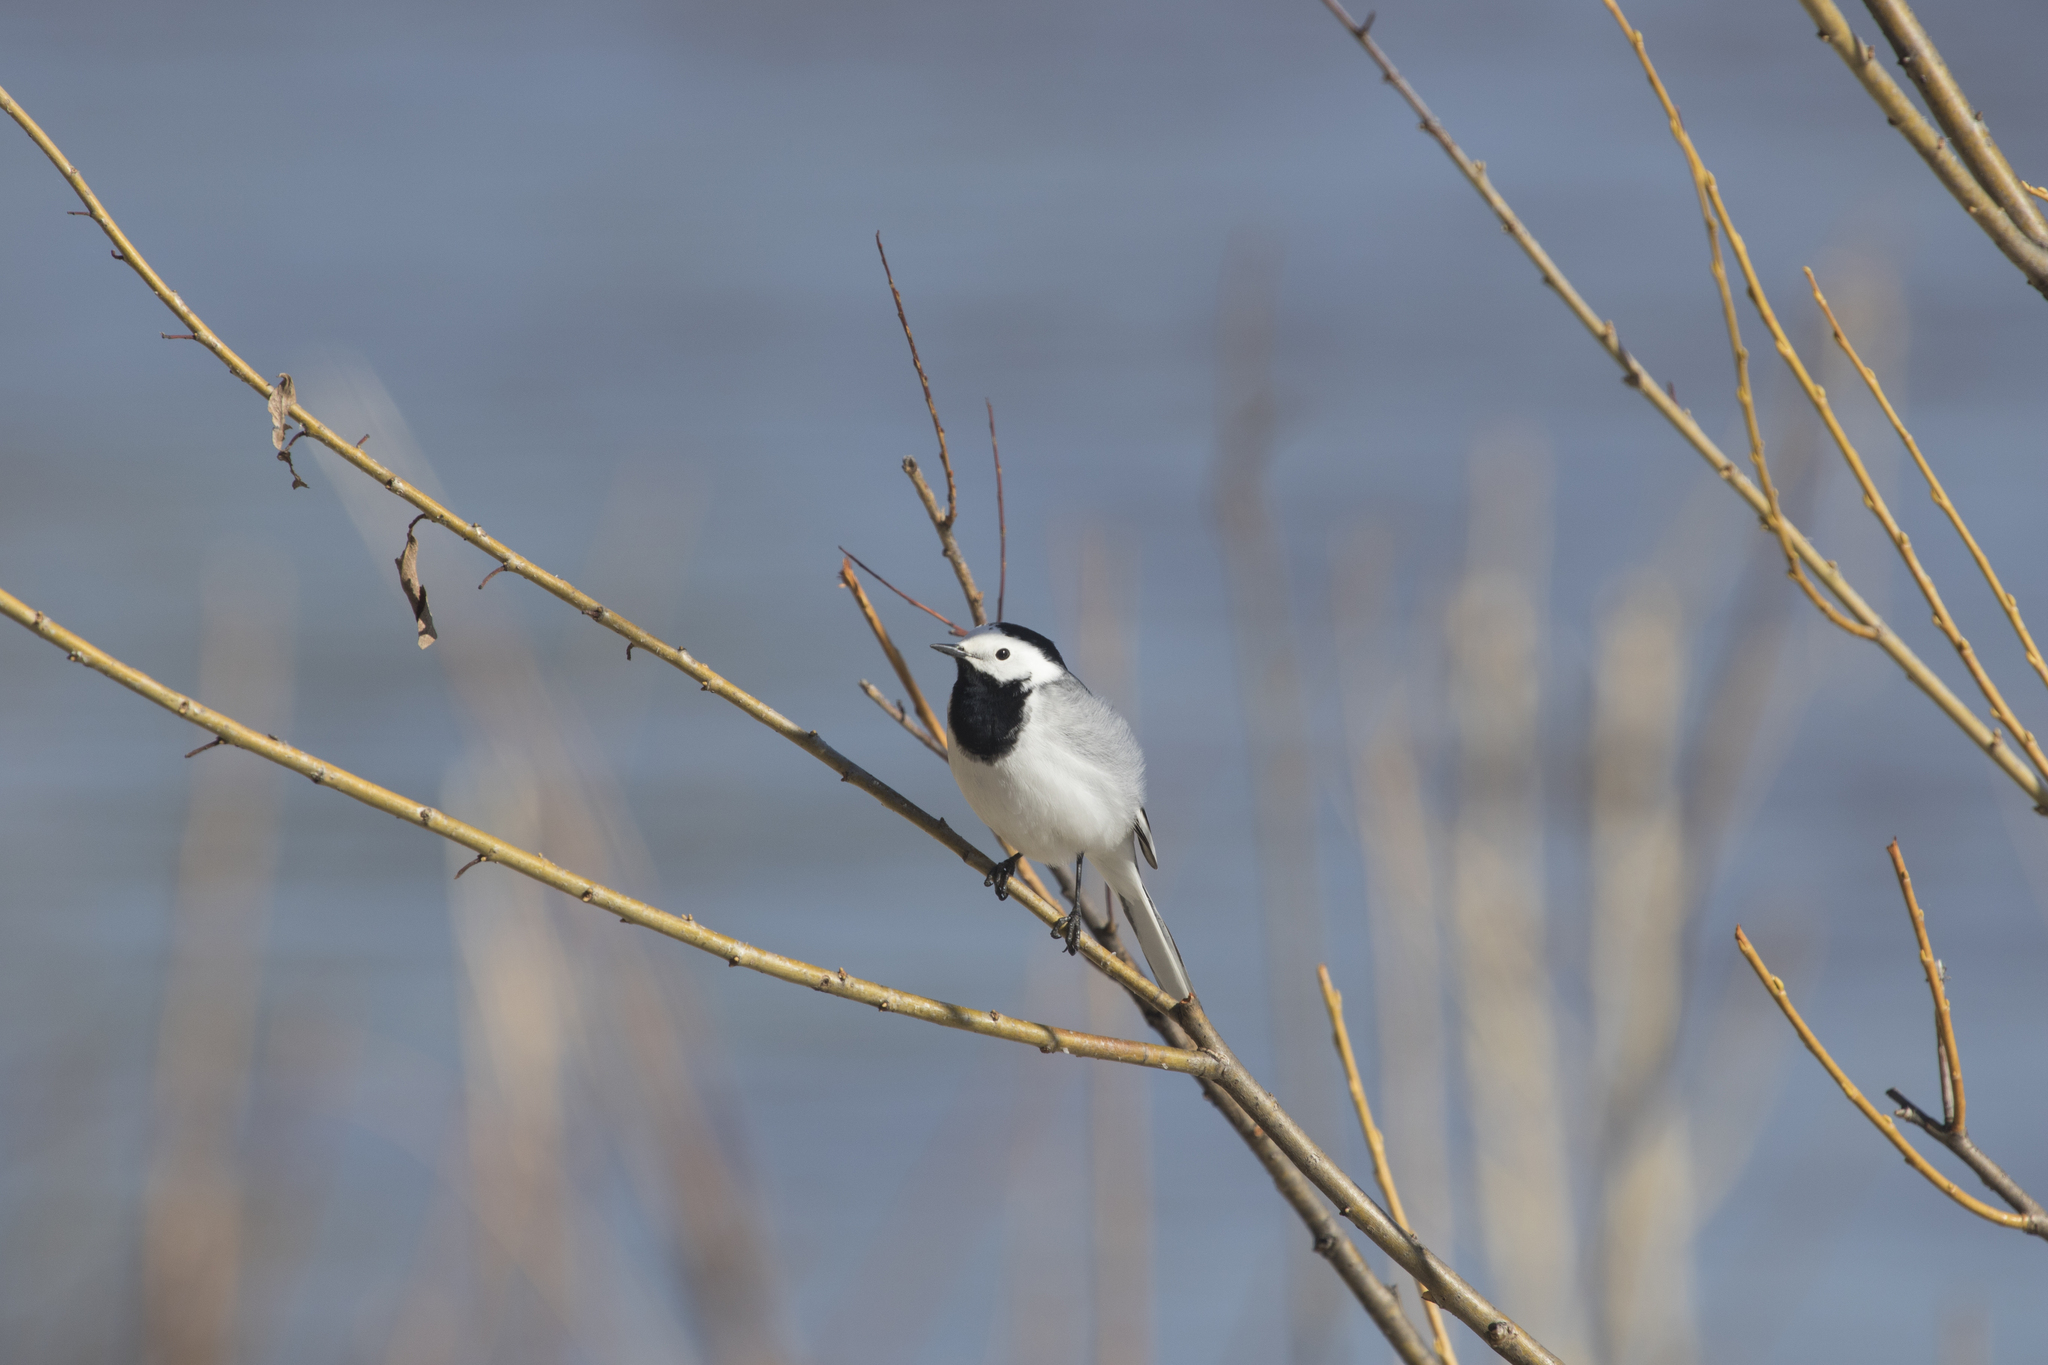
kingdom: Animalia
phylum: Chordata
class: Aves
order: Passeriformes
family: Motacillidae
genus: Motacilla
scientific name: Motacilla alba
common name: White wagtail
